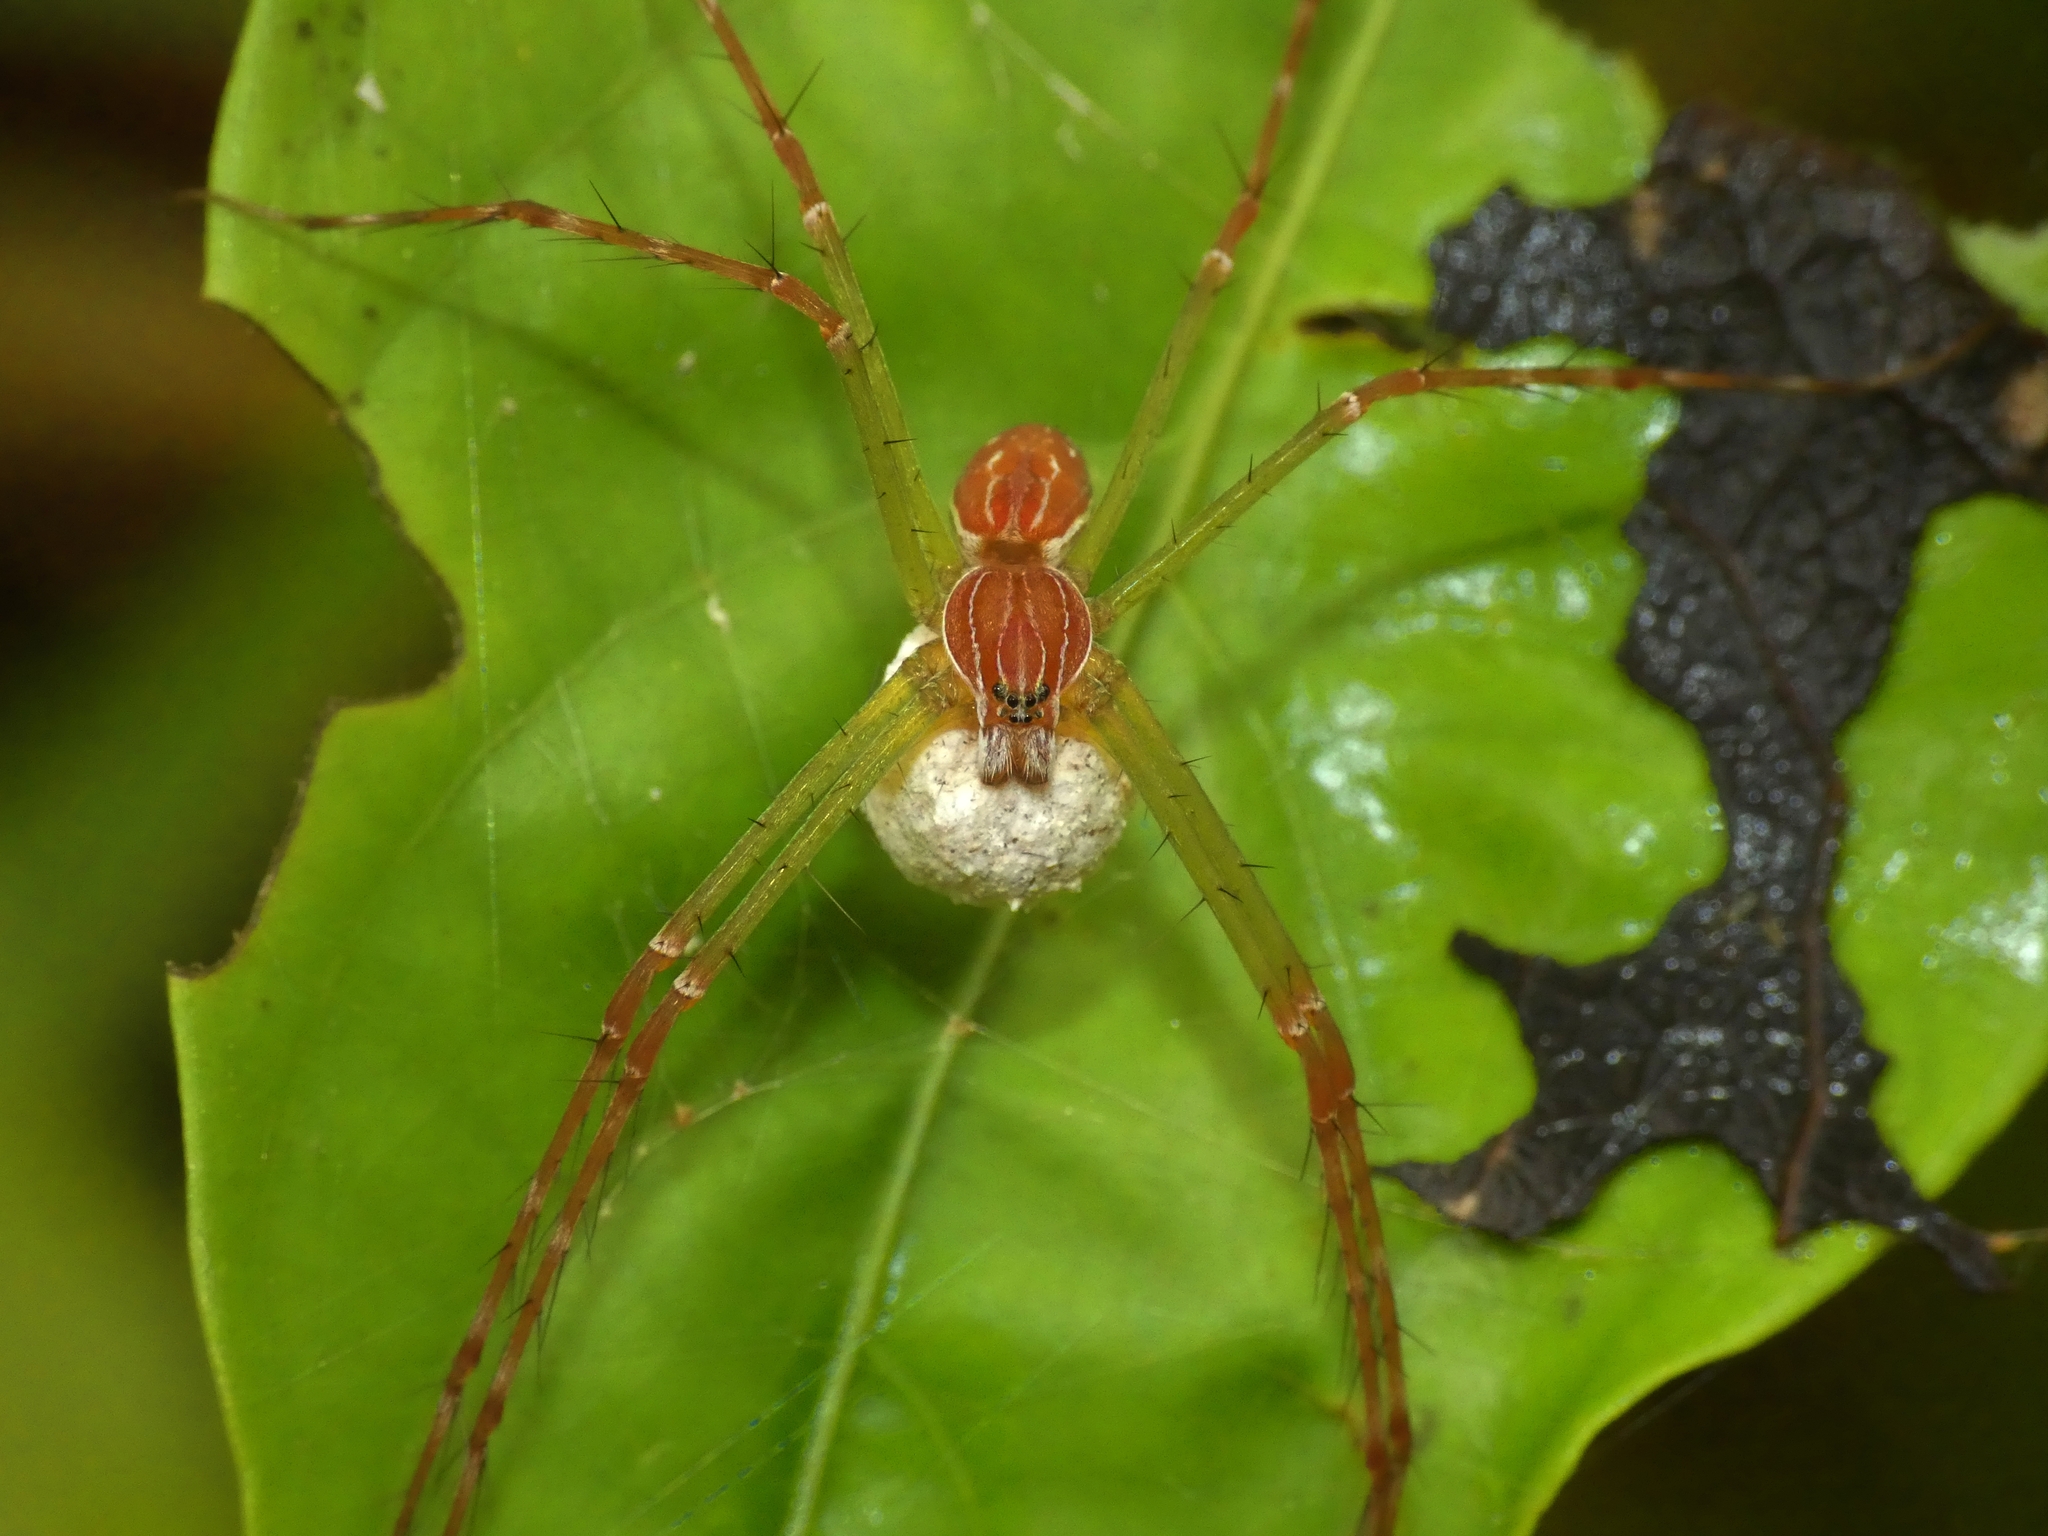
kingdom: Animalia
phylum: Arthropoda
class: Arachnida
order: Araneae
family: Pisauridae
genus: Hygropoda
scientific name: Hygropoda lineata
